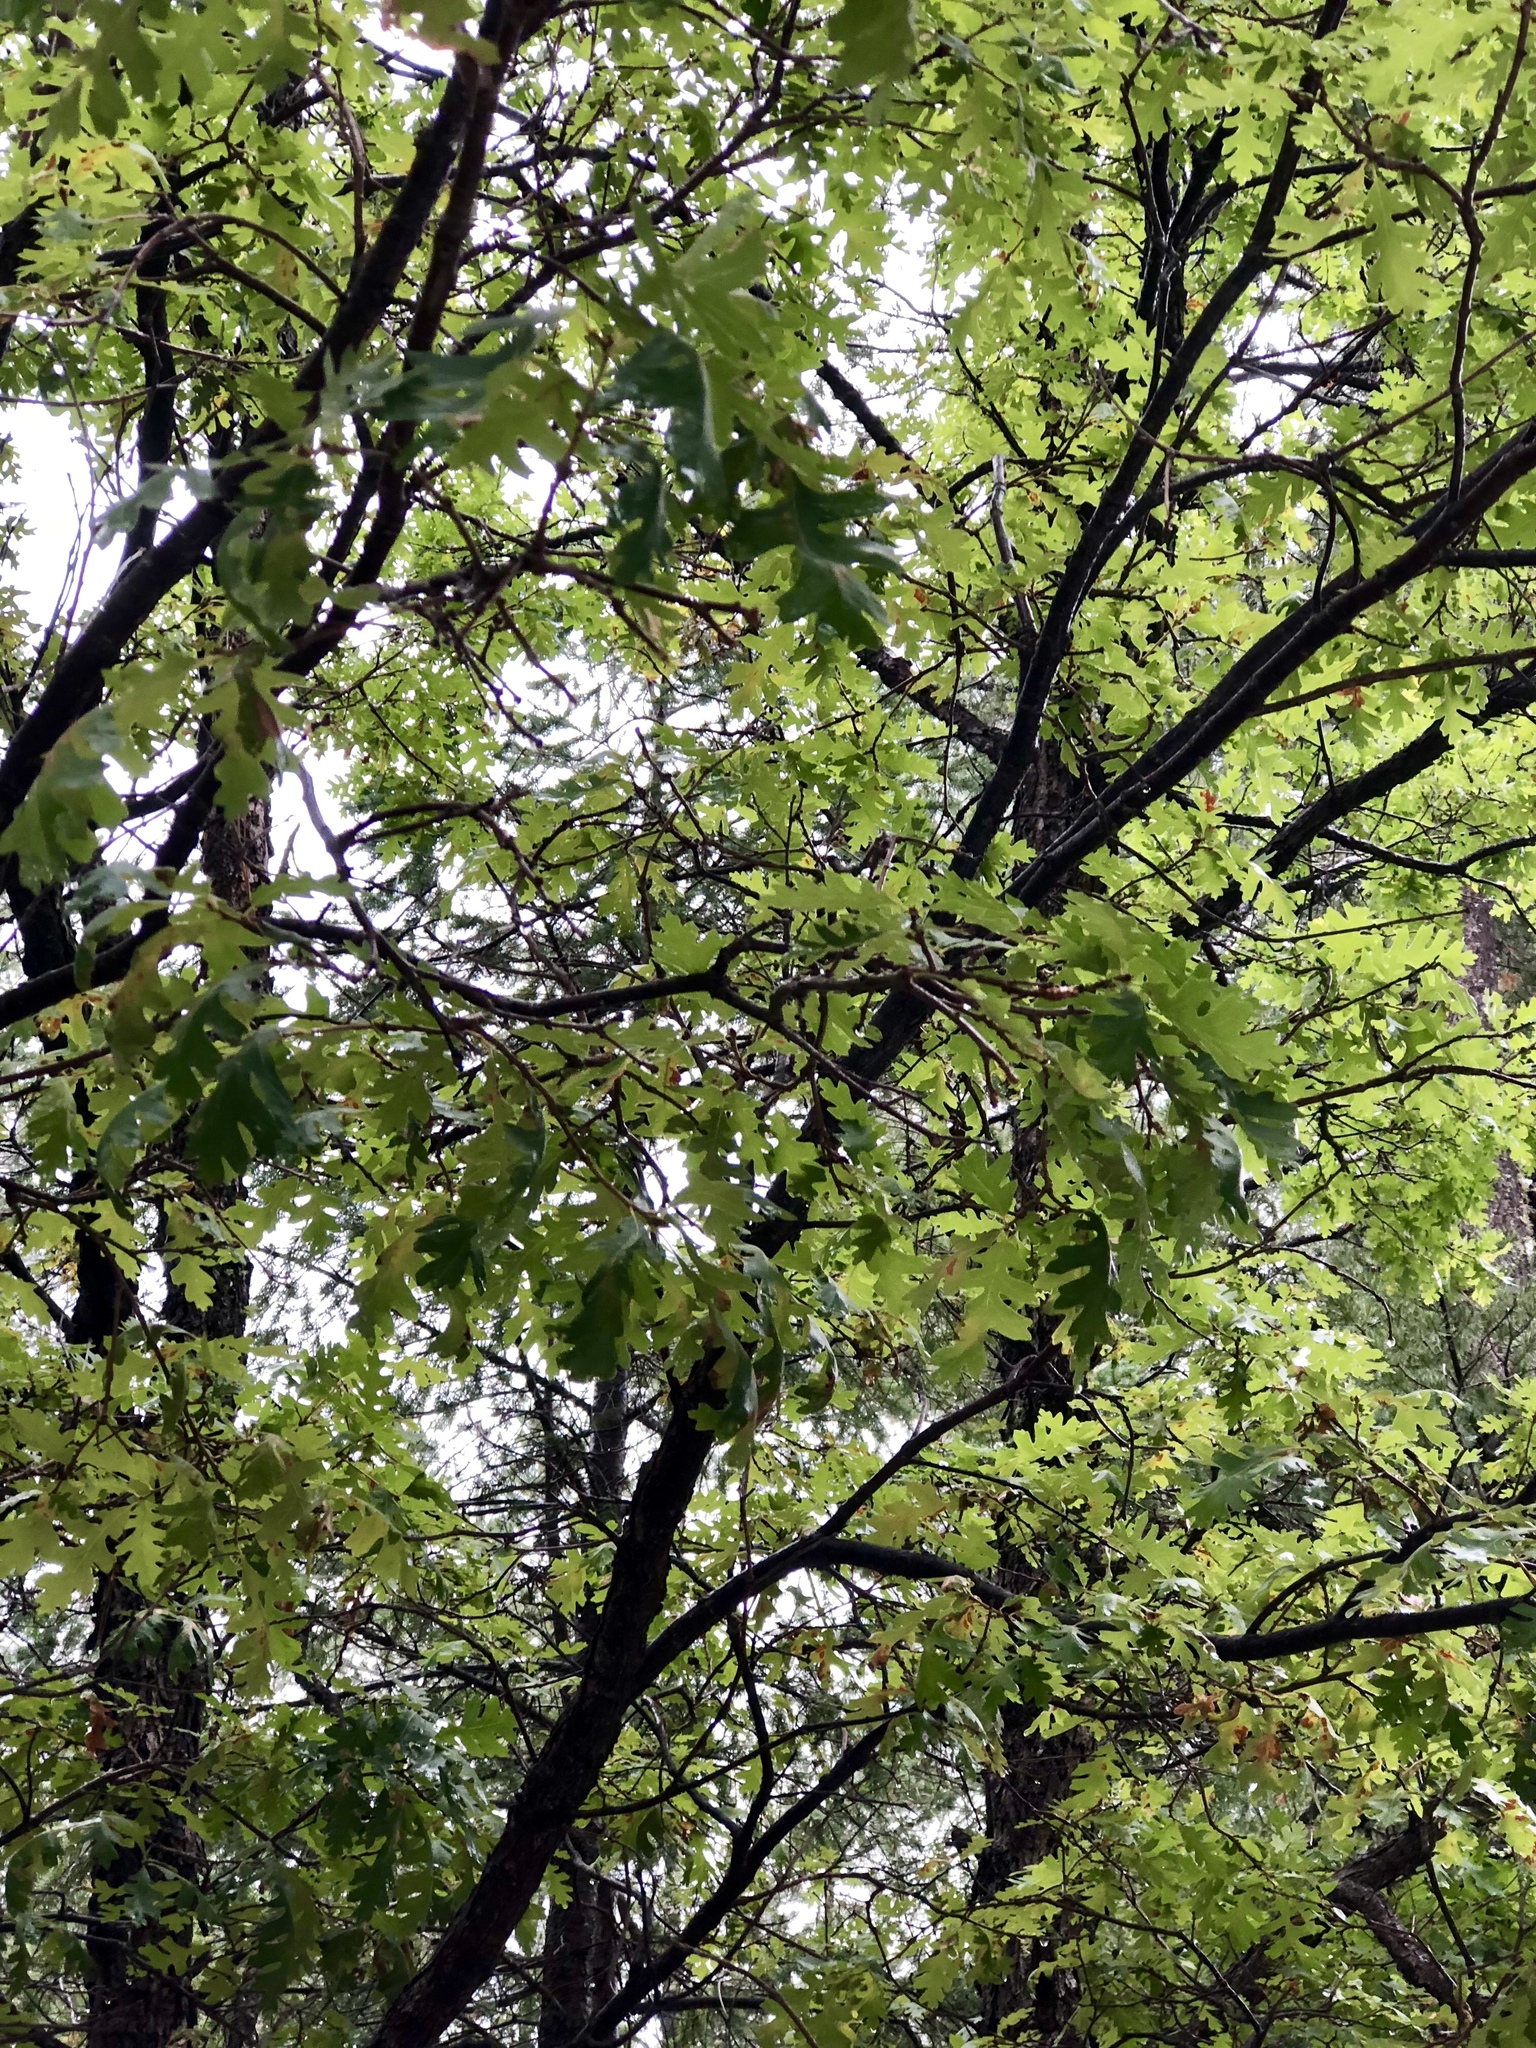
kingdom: Plantae
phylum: Tracheophyta
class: Magnoliopsida
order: Fagales
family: Fagaceae
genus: Quercus
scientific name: Quercus gambelii
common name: Gambel oak
